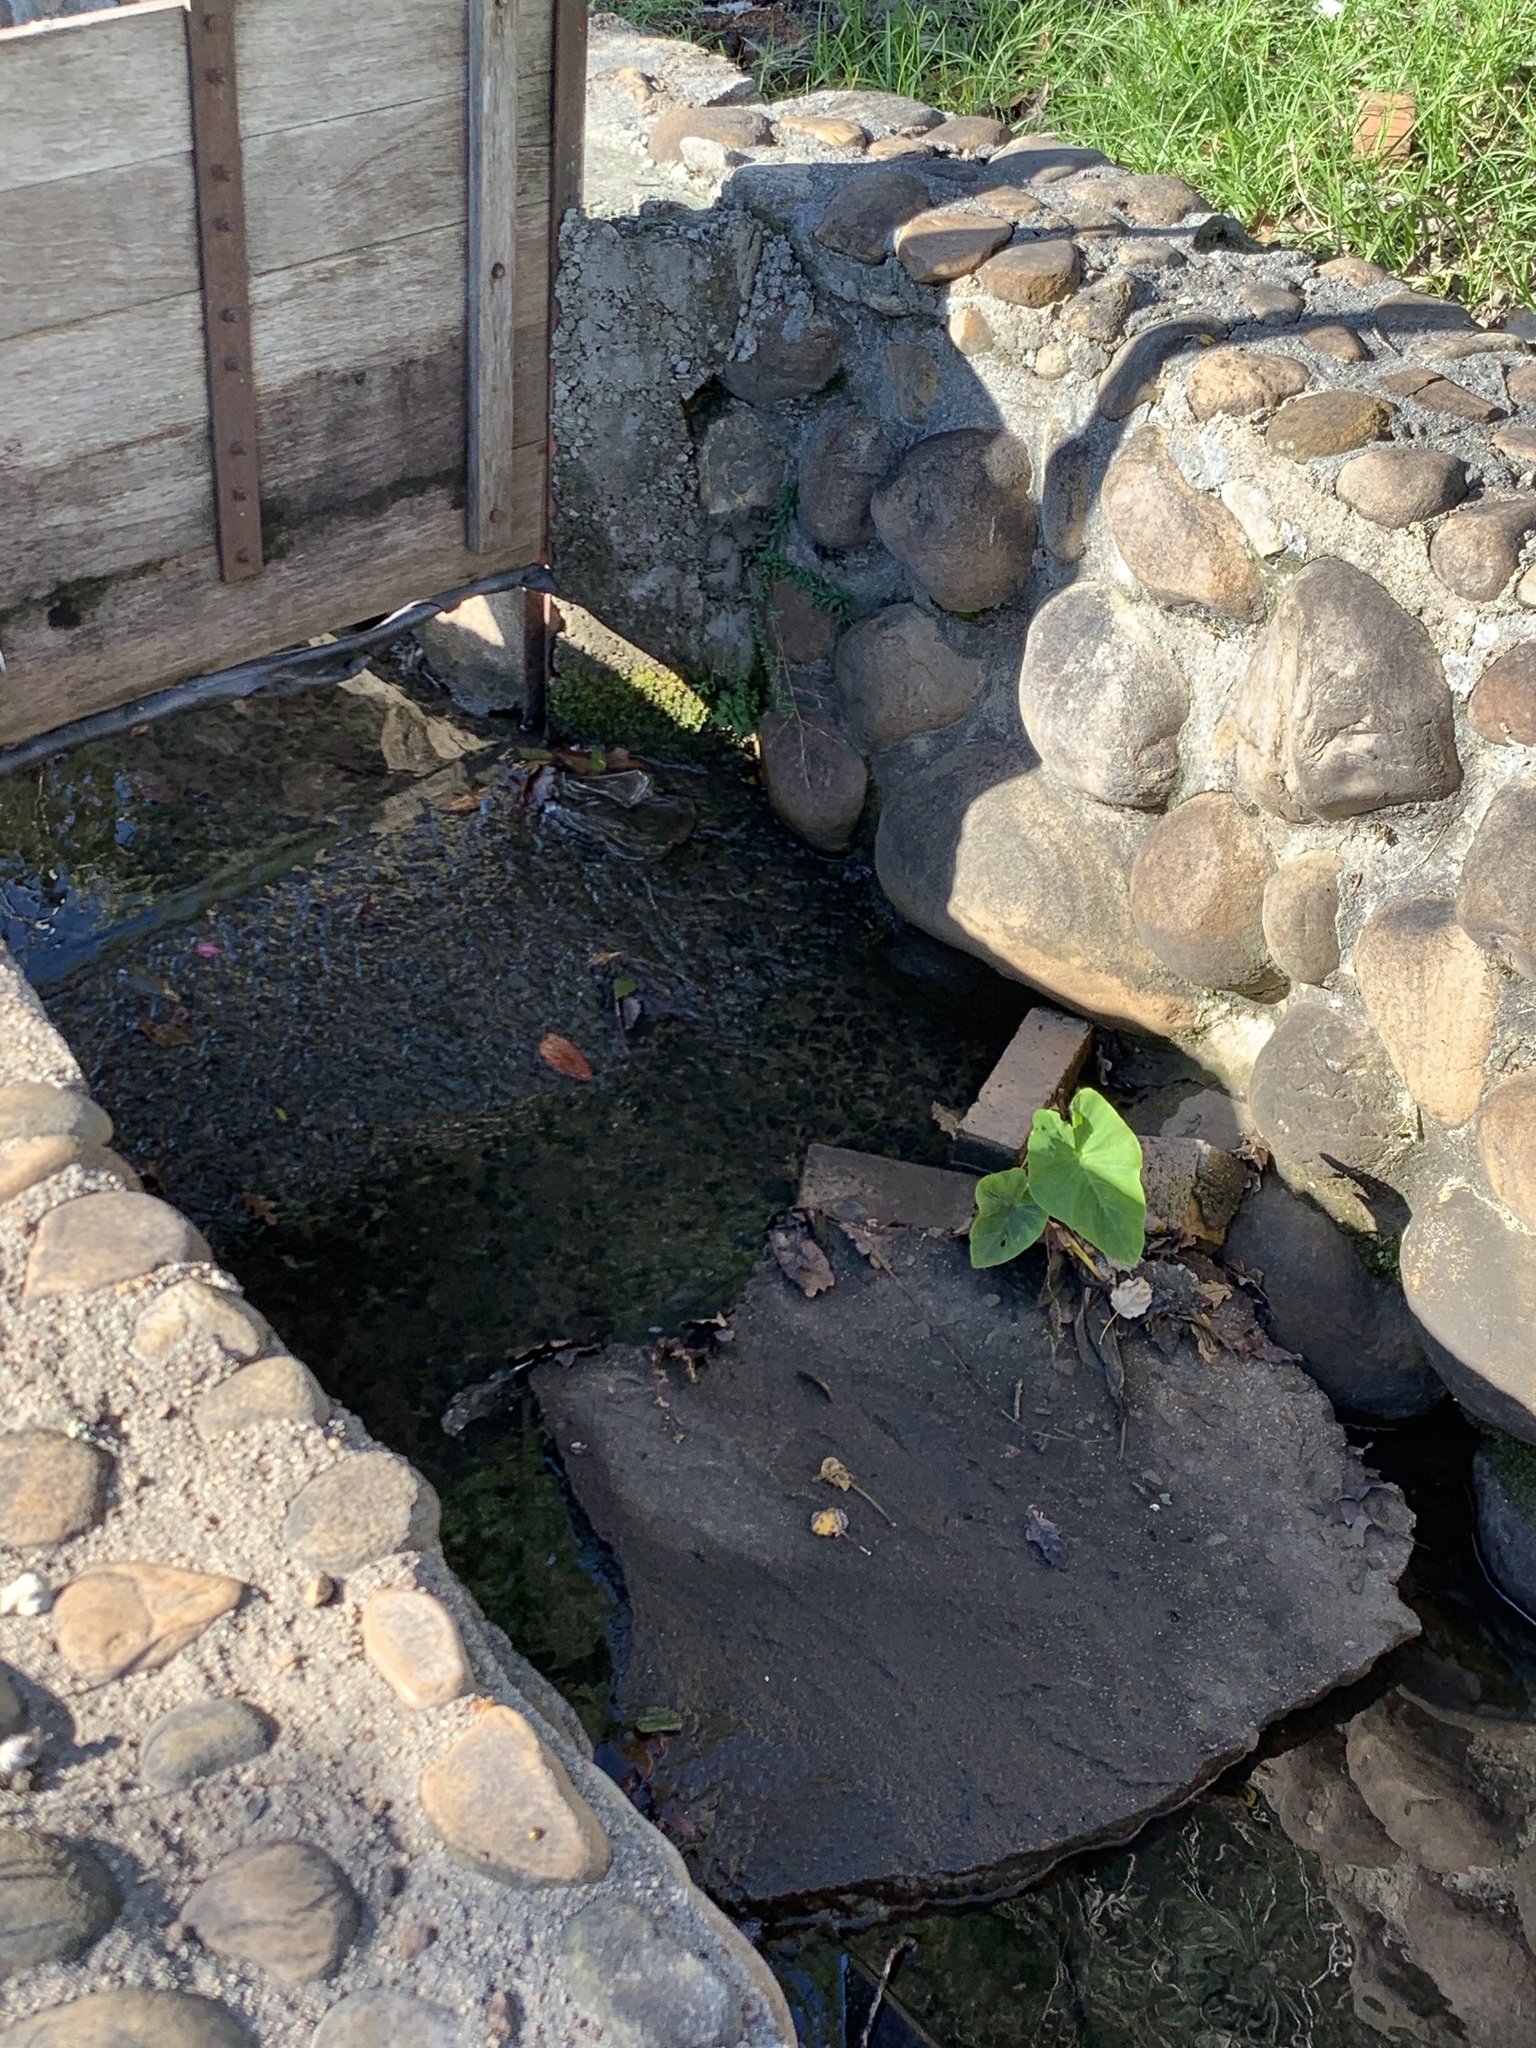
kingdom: Plantae
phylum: Tracheophyta
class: Liliopsida
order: Alismatales
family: Araceae
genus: Colocasia
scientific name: Colocasia esculenta
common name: Taro
